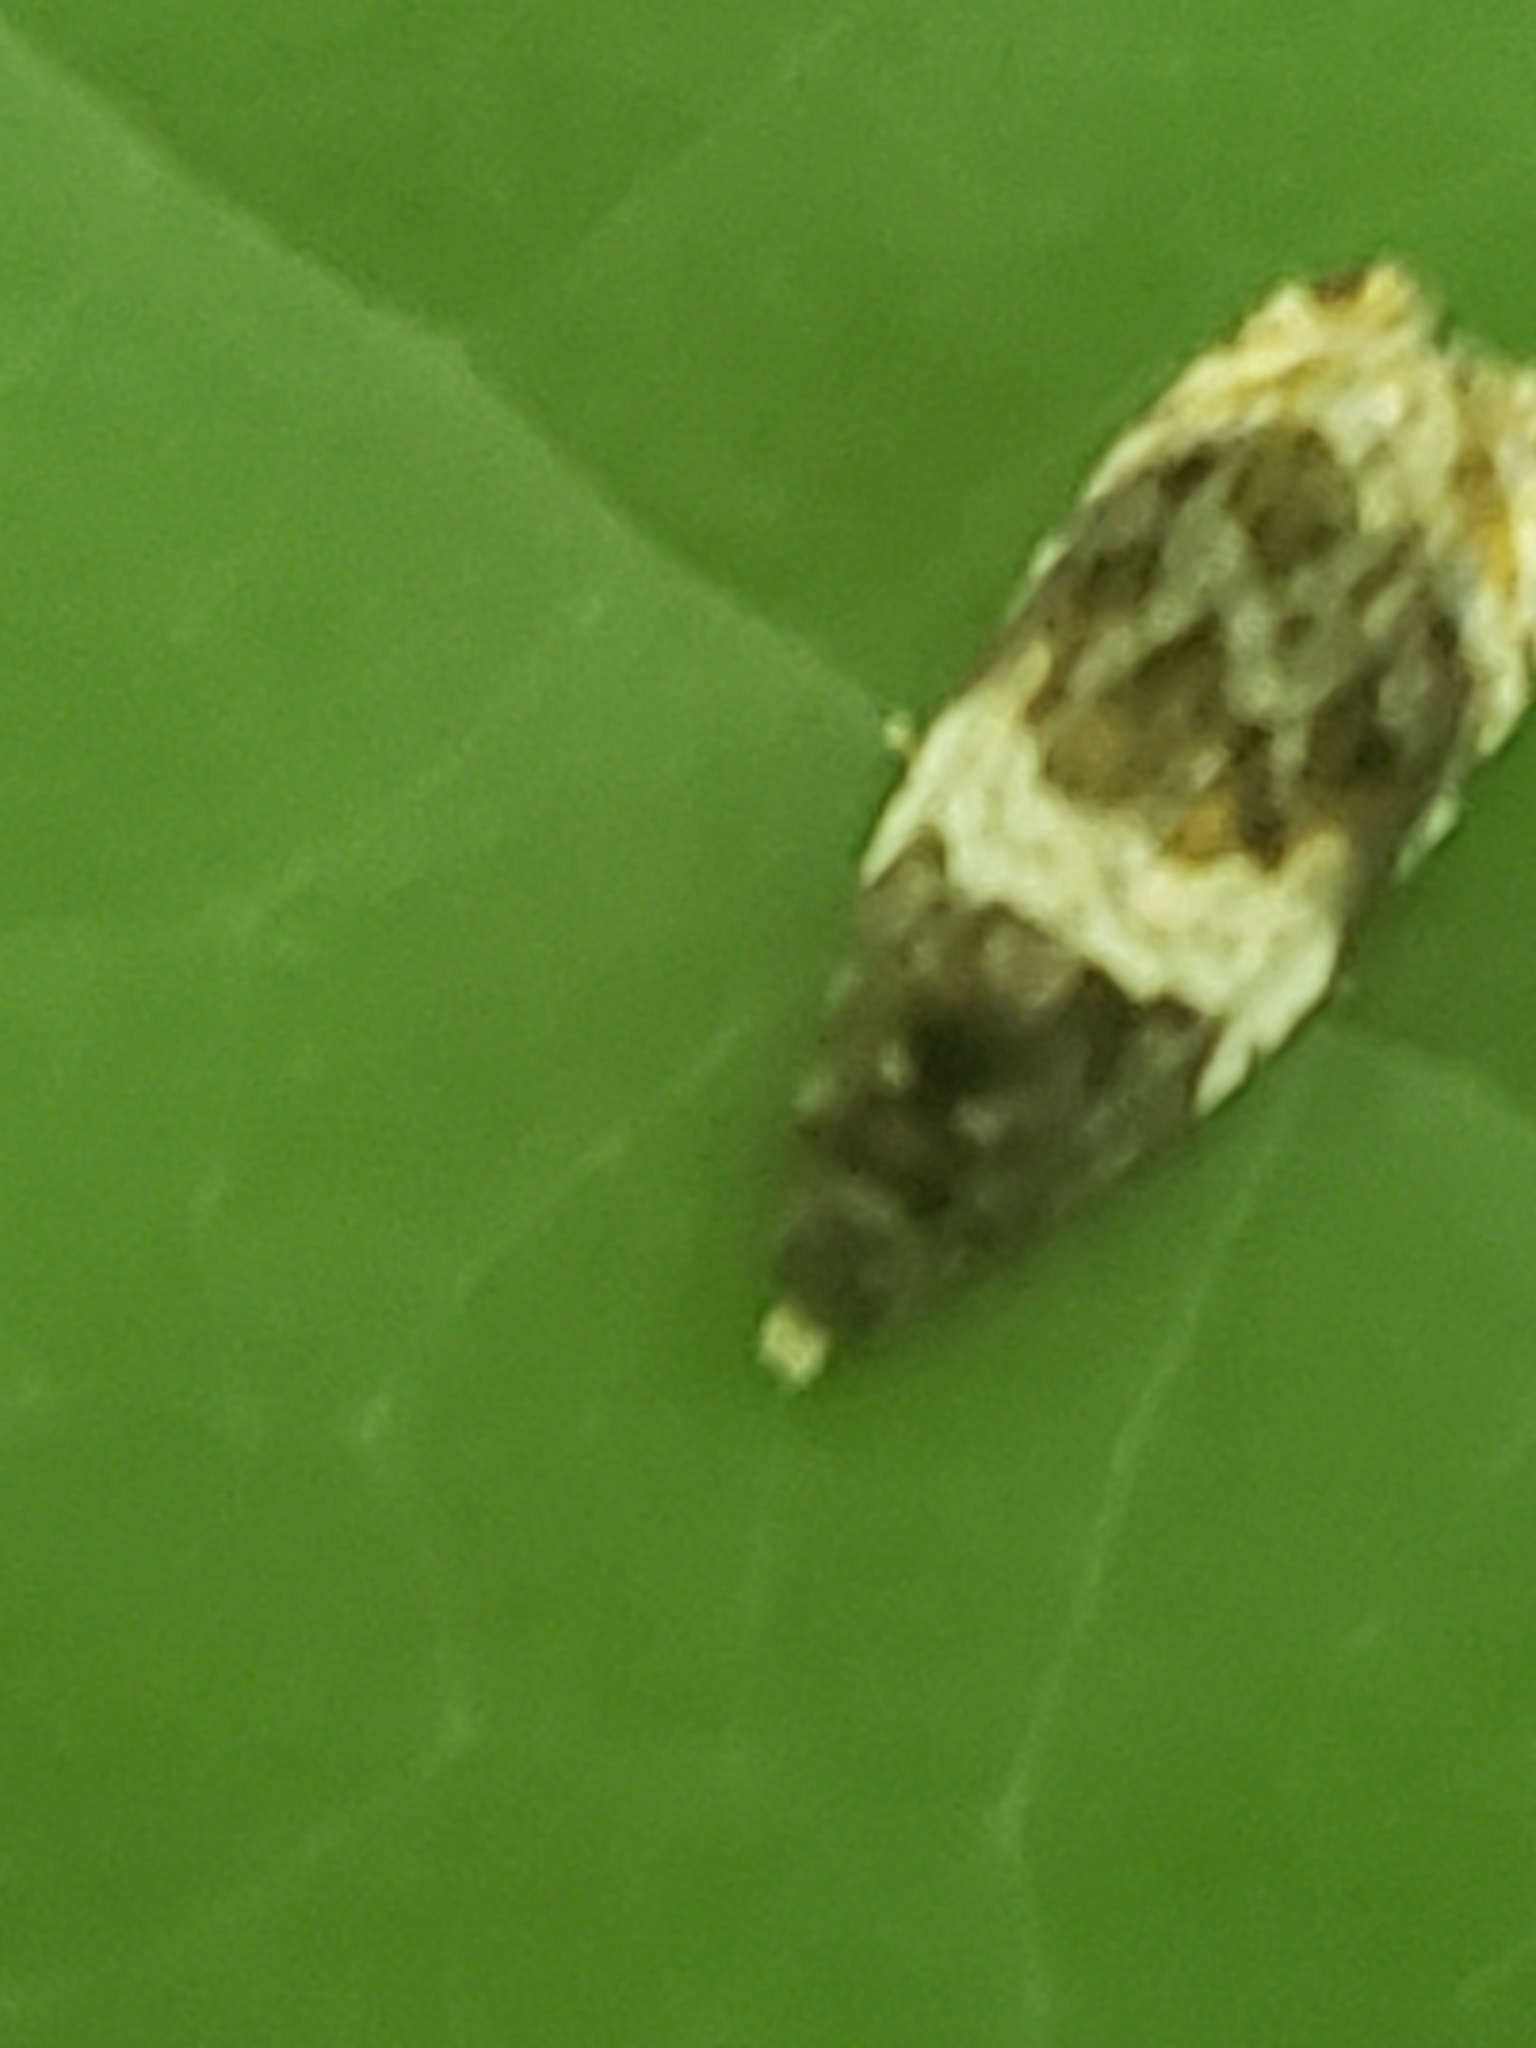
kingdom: Animalia
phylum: Arthropoda
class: Insecta
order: Lepidoptera
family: Tortricidae
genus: Olethreutes
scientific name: Olethreutes fasciatana
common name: Banded olethreutes moth
